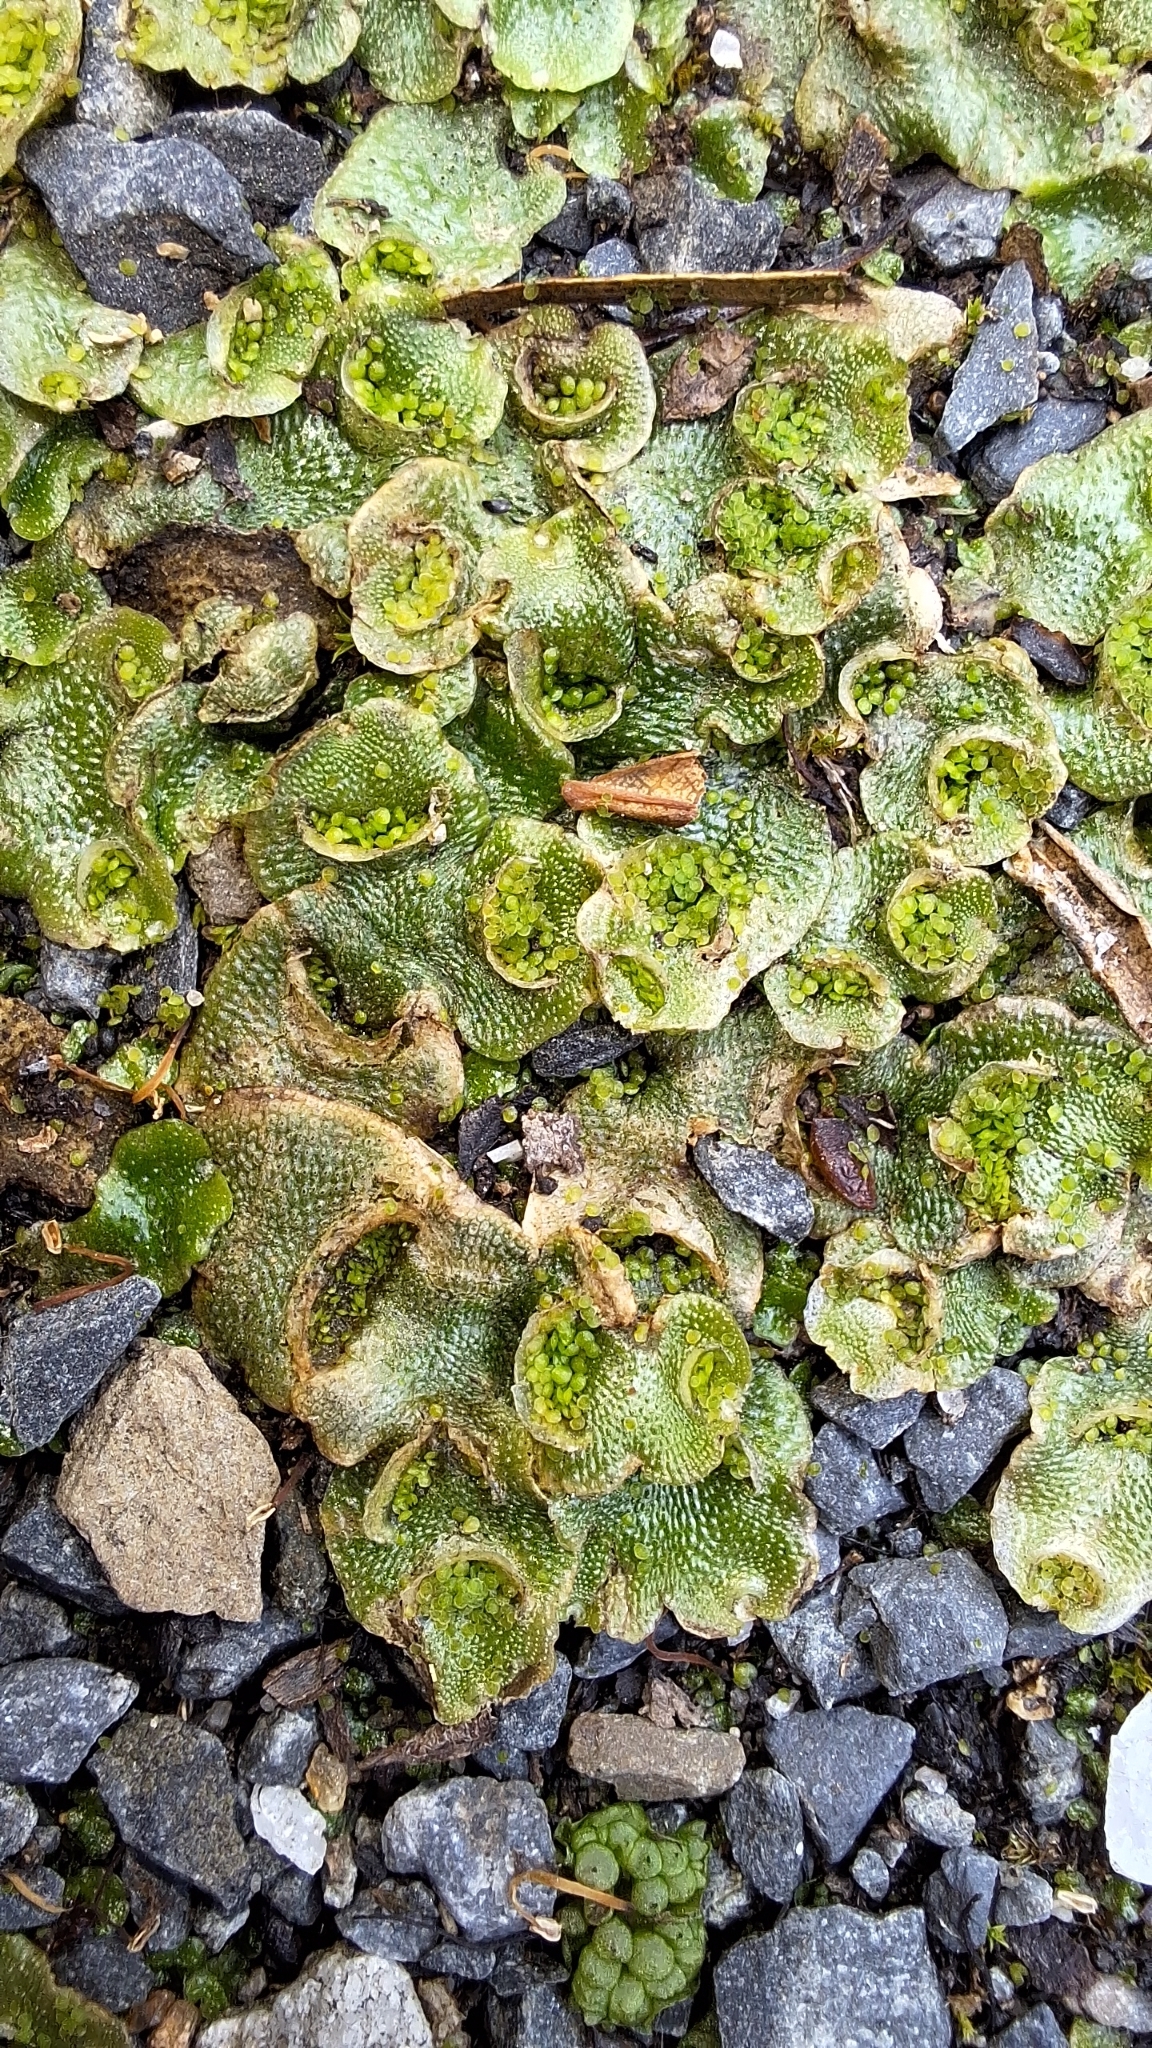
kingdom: Plantae
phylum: Marchantiophyta
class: Marchantiopsida
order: Lunulariales
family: Lunulariaceae
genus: Lunularia
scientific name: Lunularia cruciata
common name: Crescent-cup liverwort
